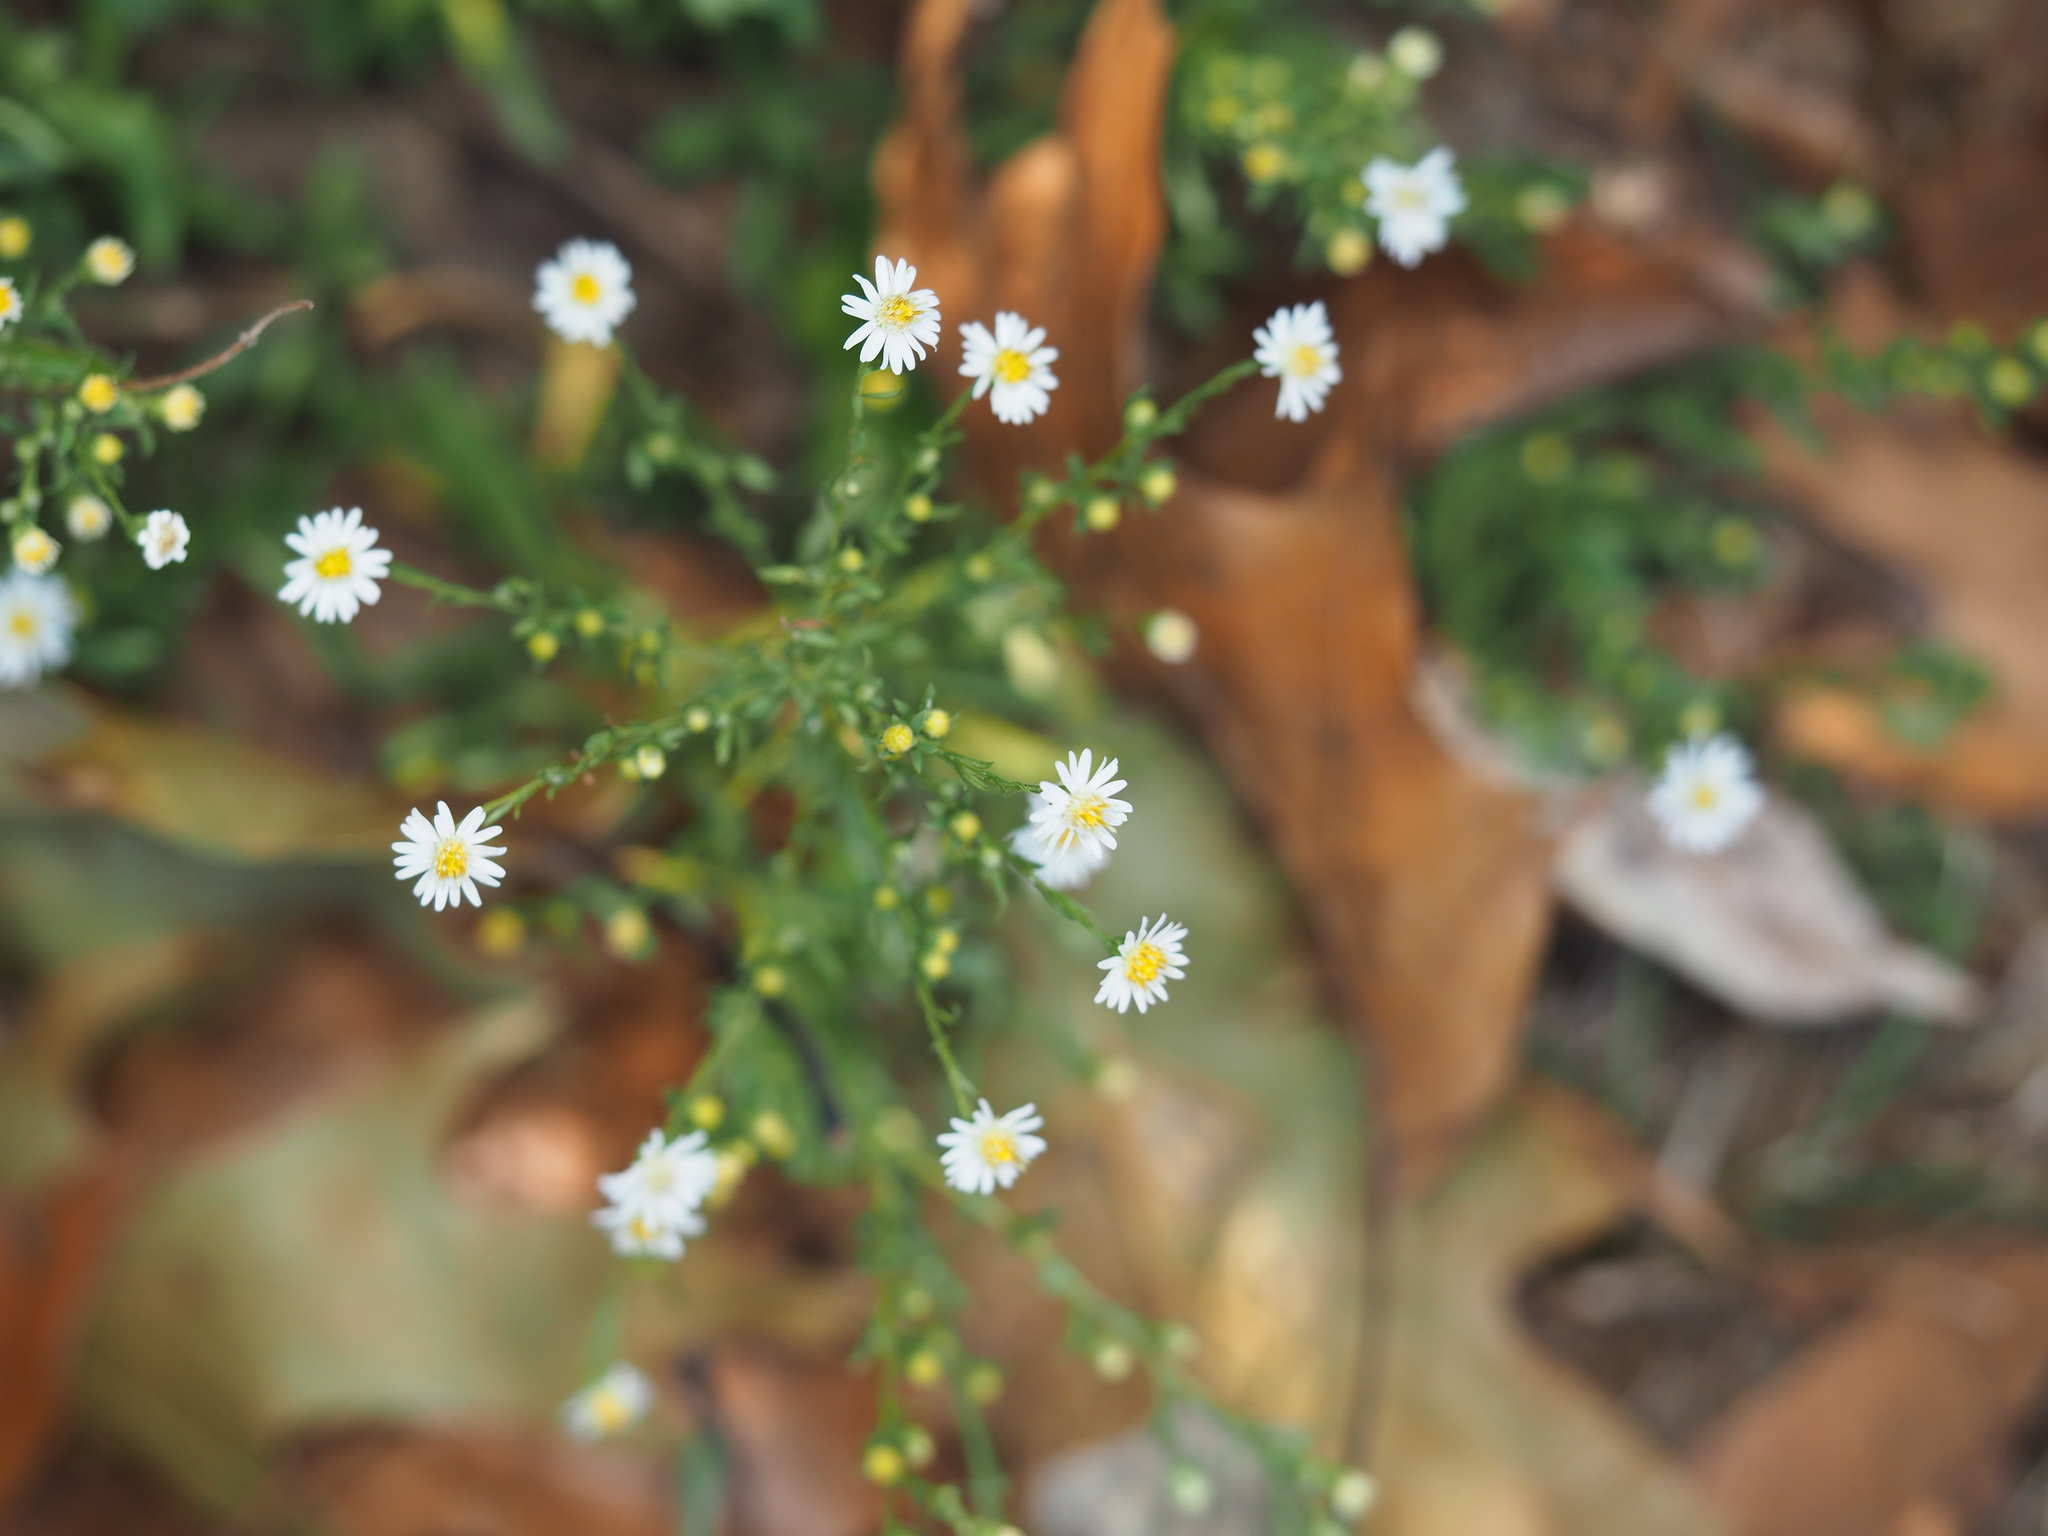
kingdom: Plantae
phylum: Tracheophyta
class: Magnoliopsida
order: Asterales
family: Asteraceae
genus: Symphyotrichum
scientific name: Symphyotrichum racemosum
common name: Small white aster
